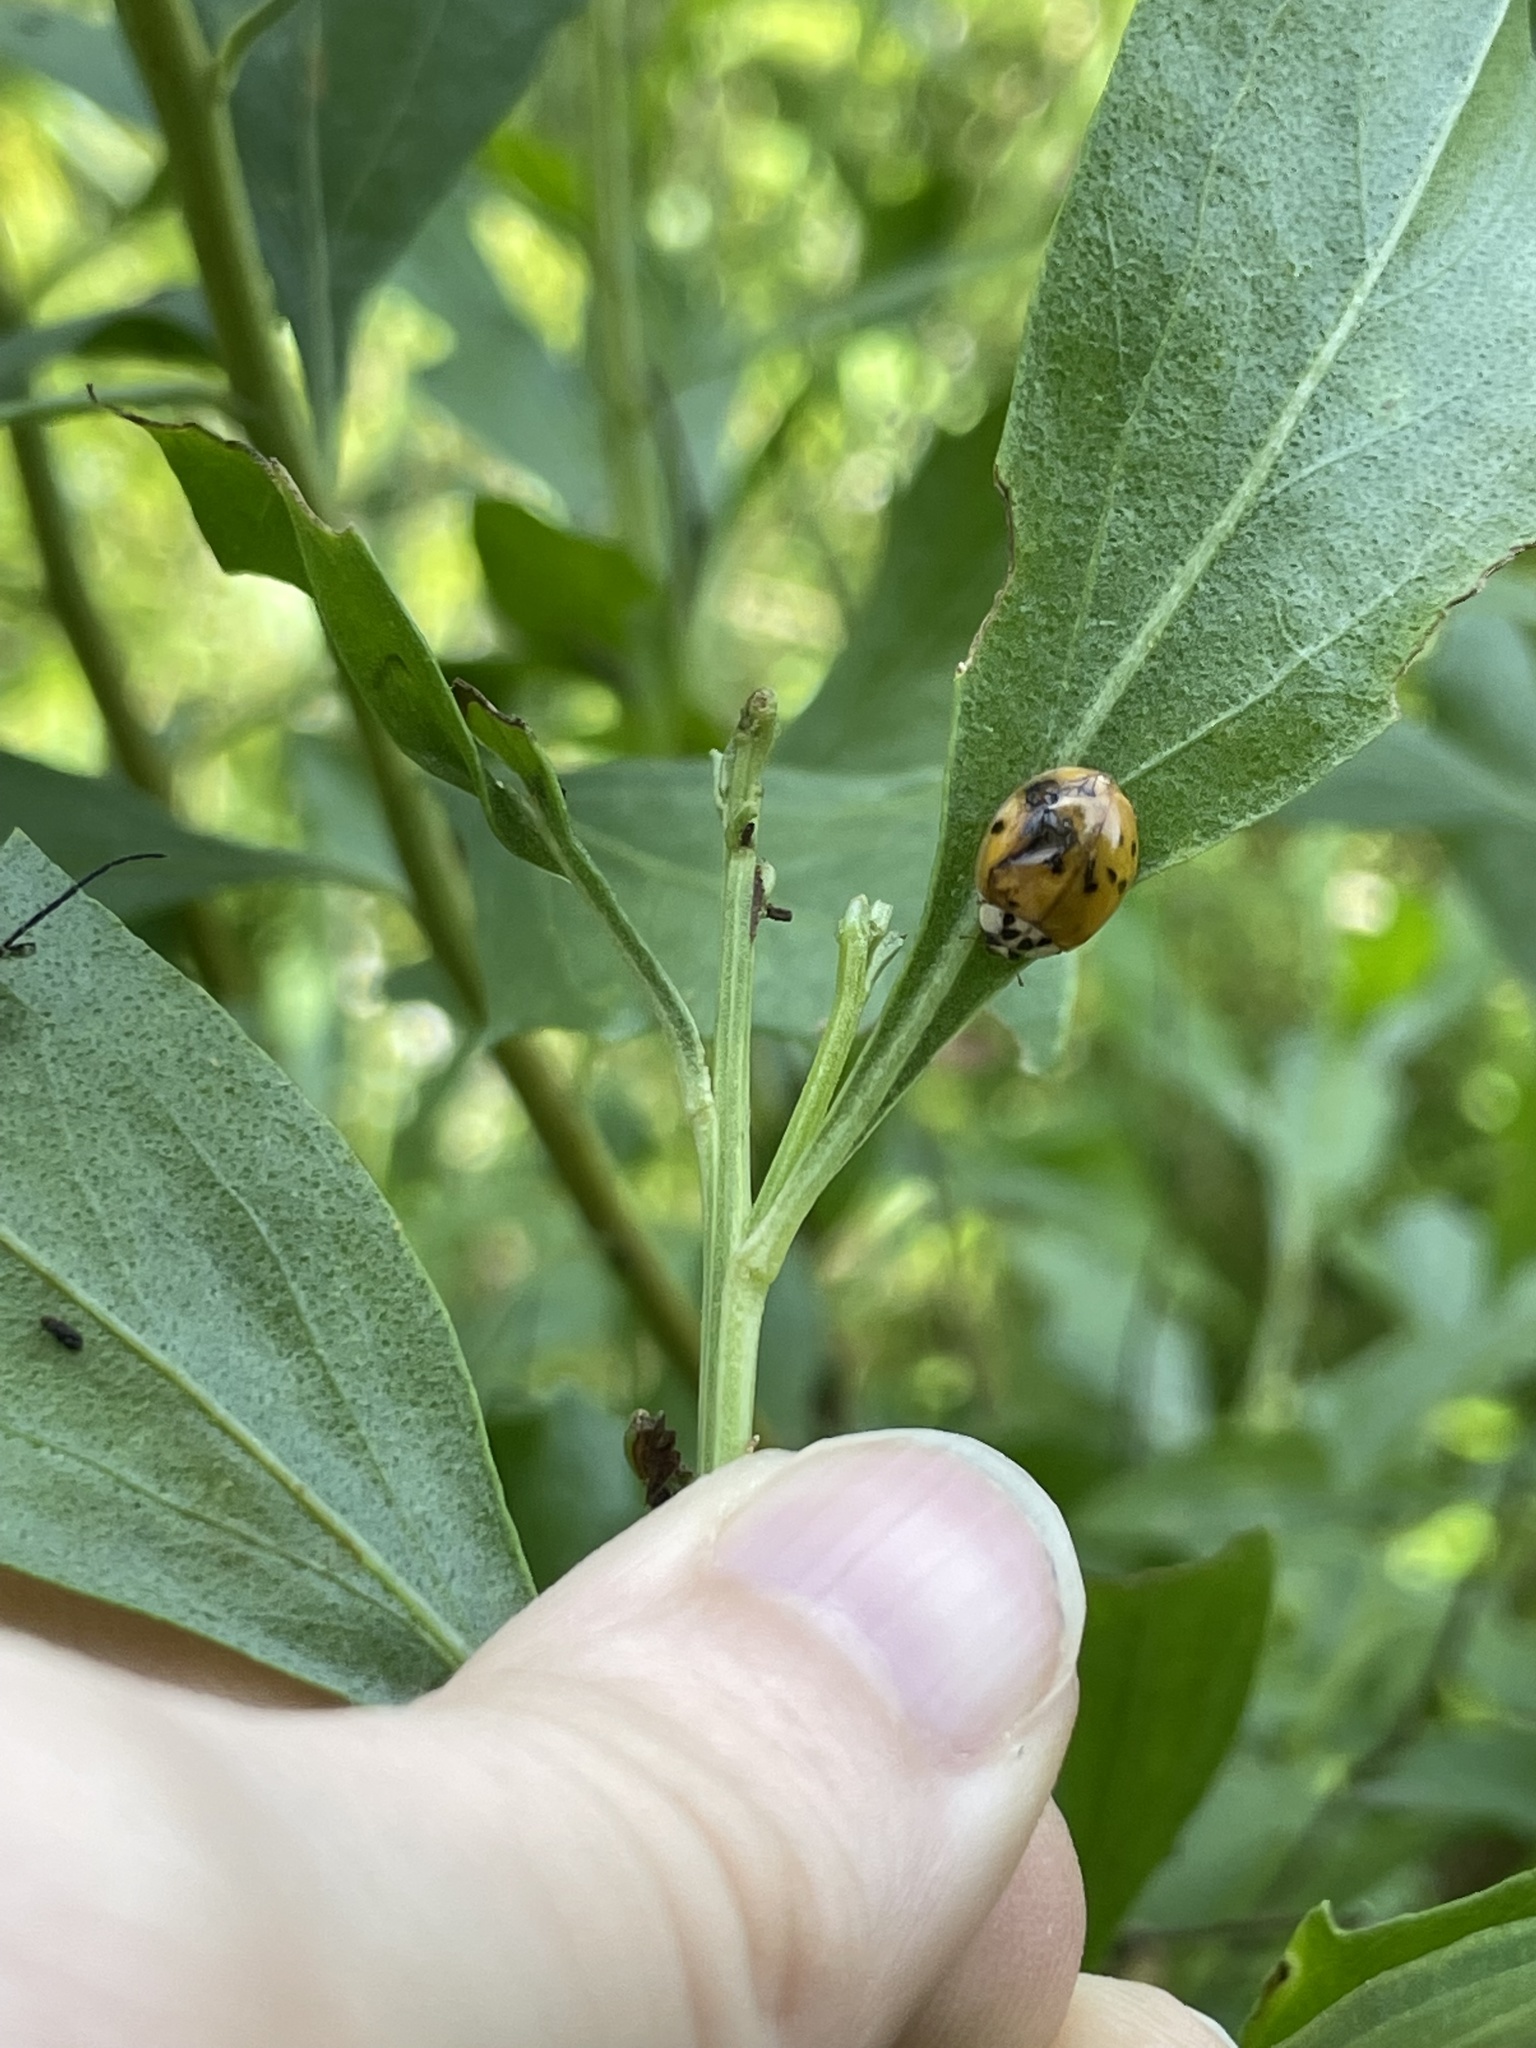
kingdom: Animalia
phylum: Arthropoda
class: Insecta
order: Coleoptera
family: Coccinellidae
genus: Harmonia
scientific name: Harmonia axyridis
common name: Harlequin ladybird
